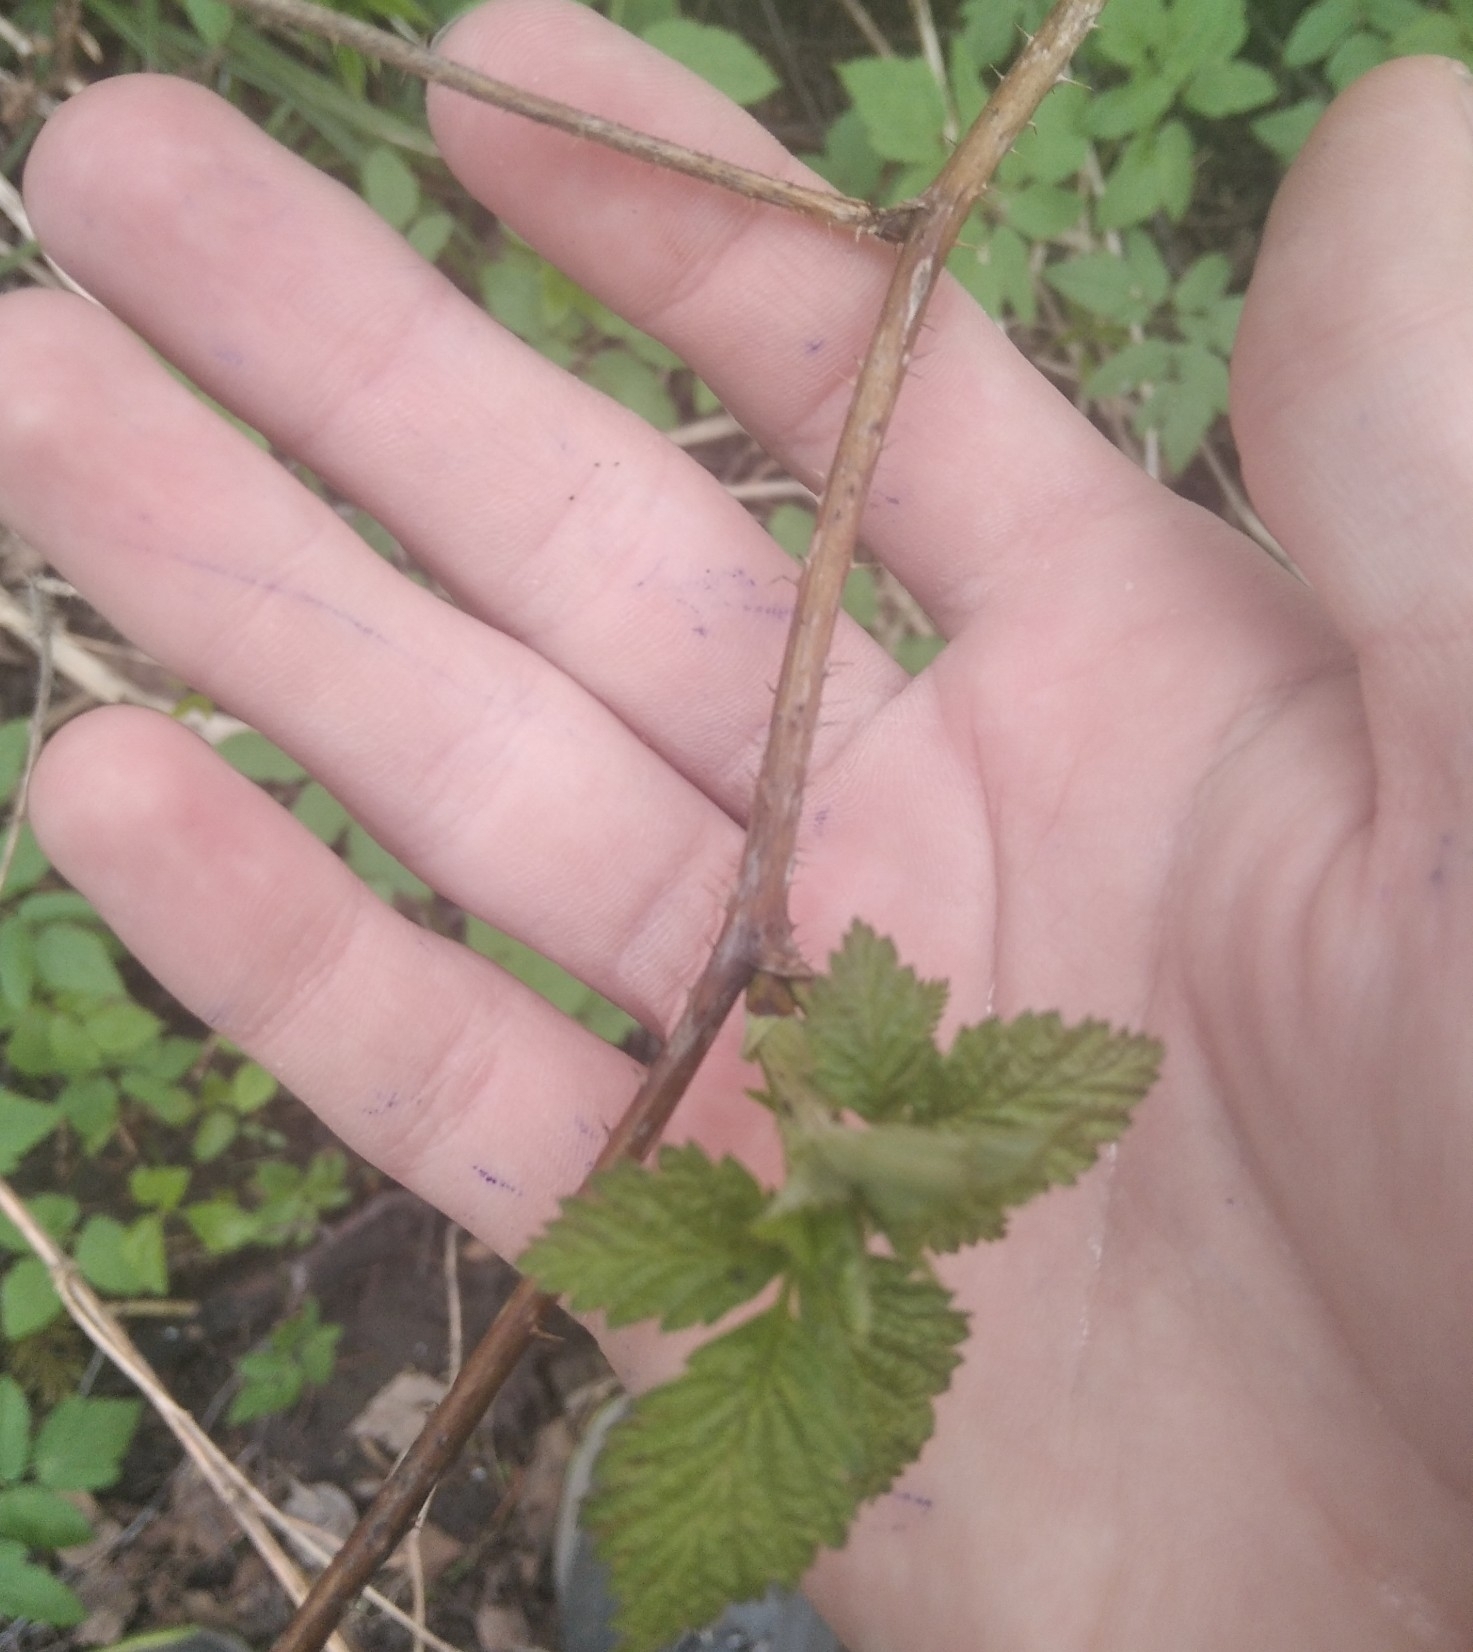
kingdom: Plantae
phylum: Tracheophyta
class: Magnoliopsida
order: Rosales
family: Rosaceae
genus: Rubus
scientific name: Rubus idaeus
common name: Raspberry
